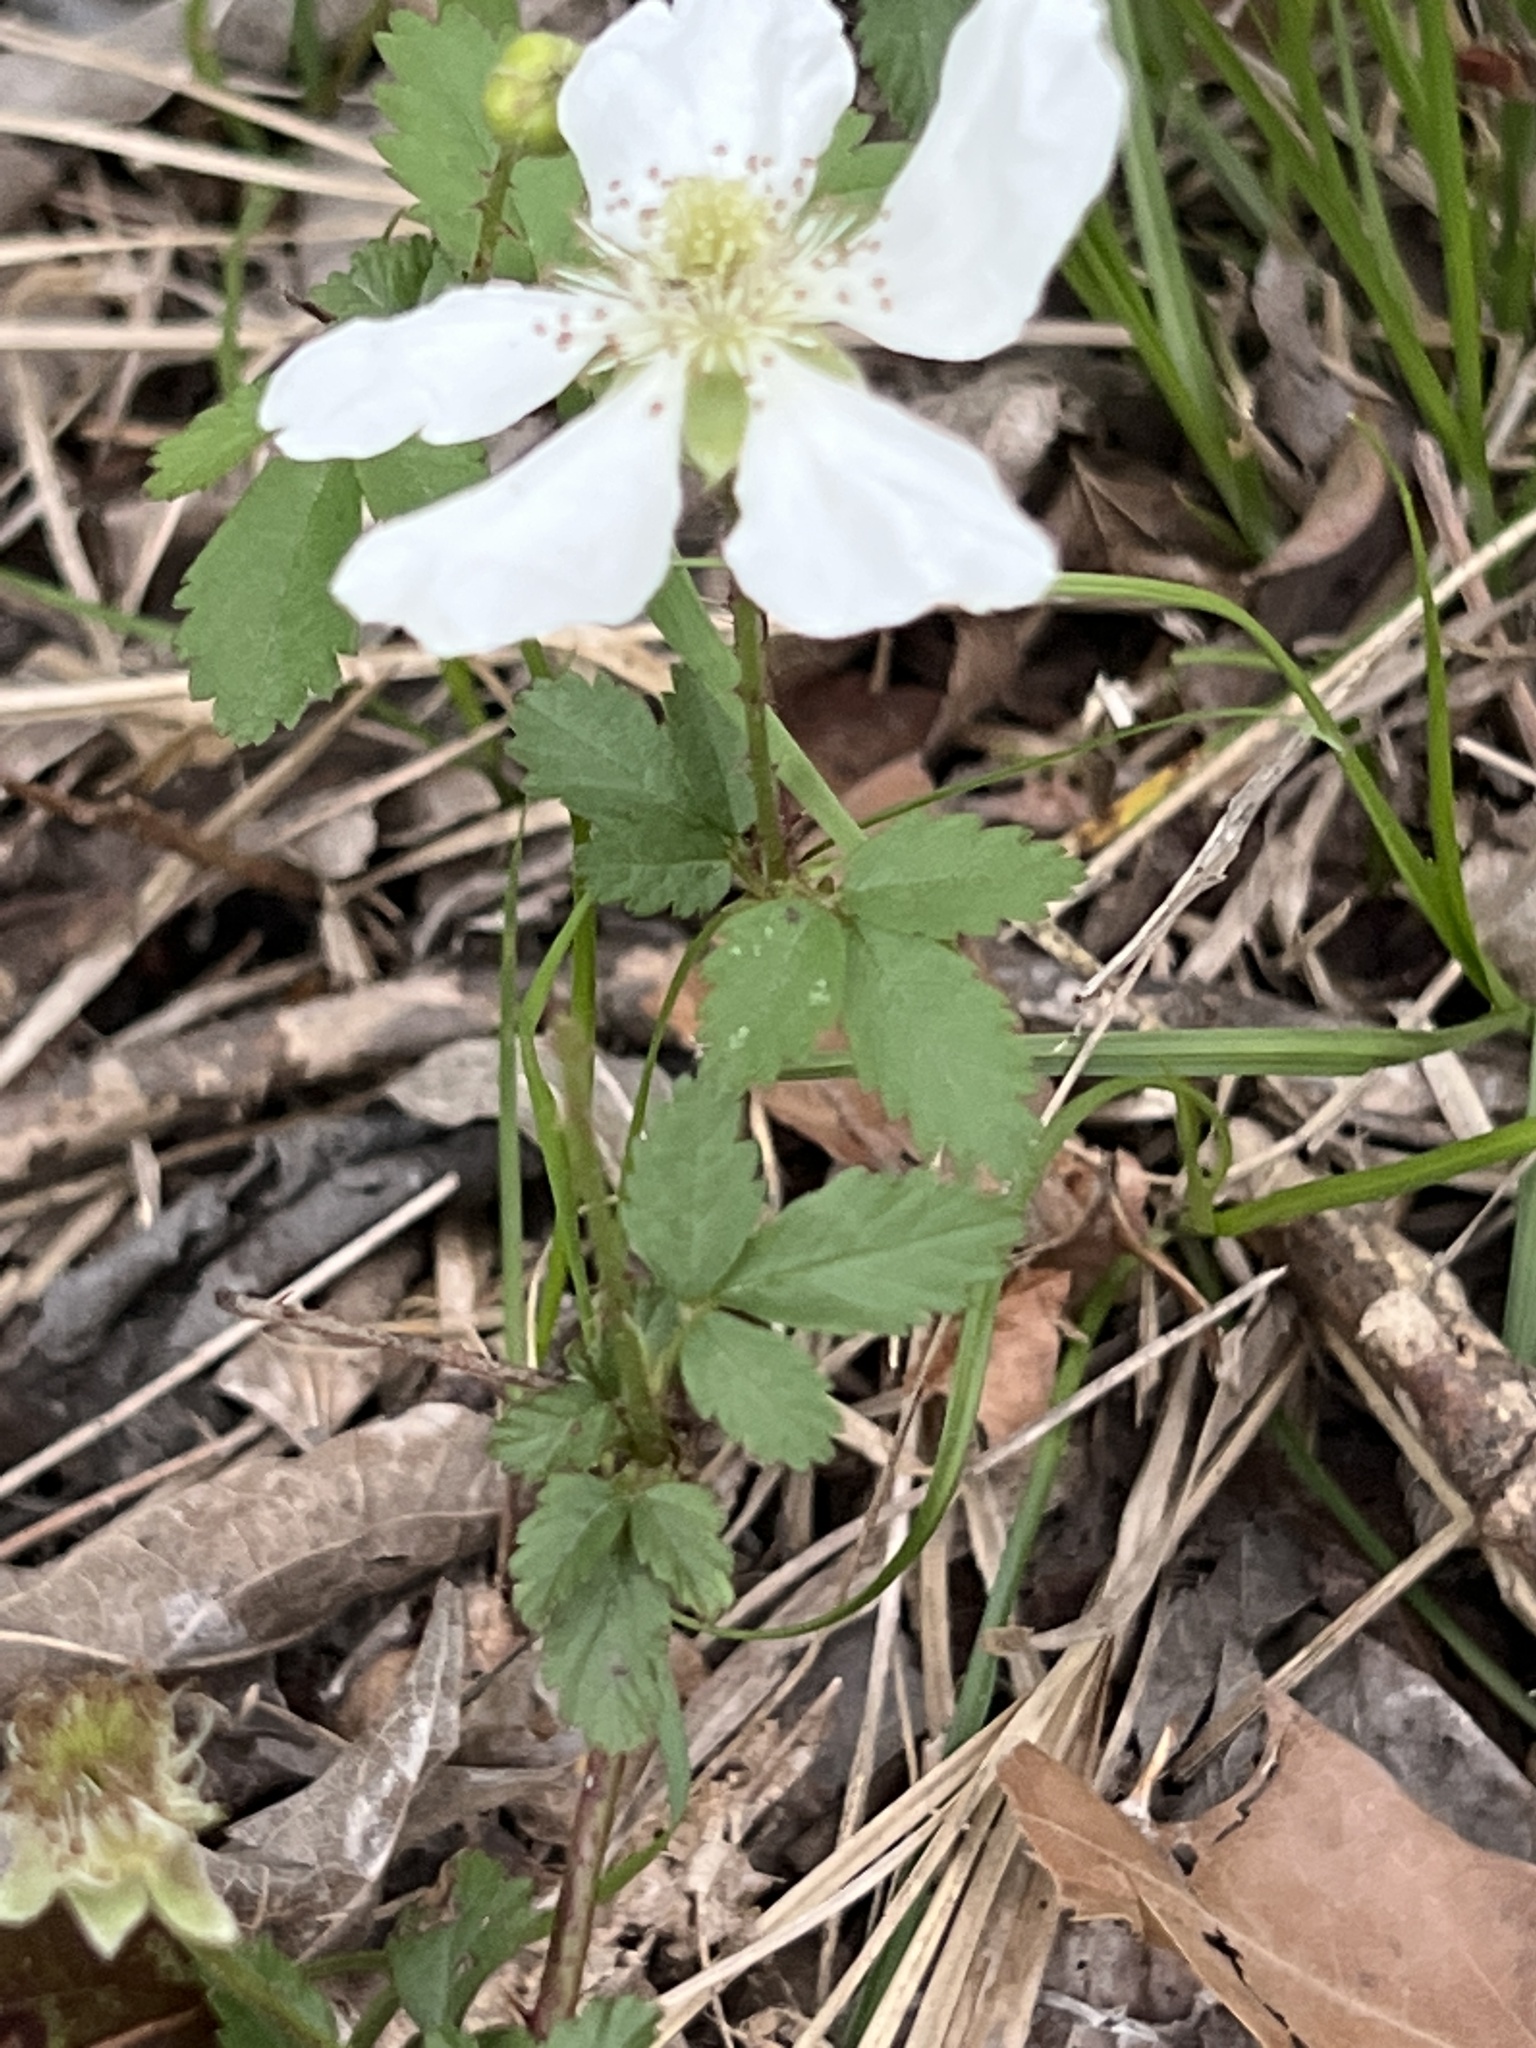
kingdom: Plantae
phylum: Tracheophyta
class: Magnoliopsida
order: Rosales
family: Rosaceae
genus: Rubus
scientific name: Rubus trivialis
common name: Southern dewberry
